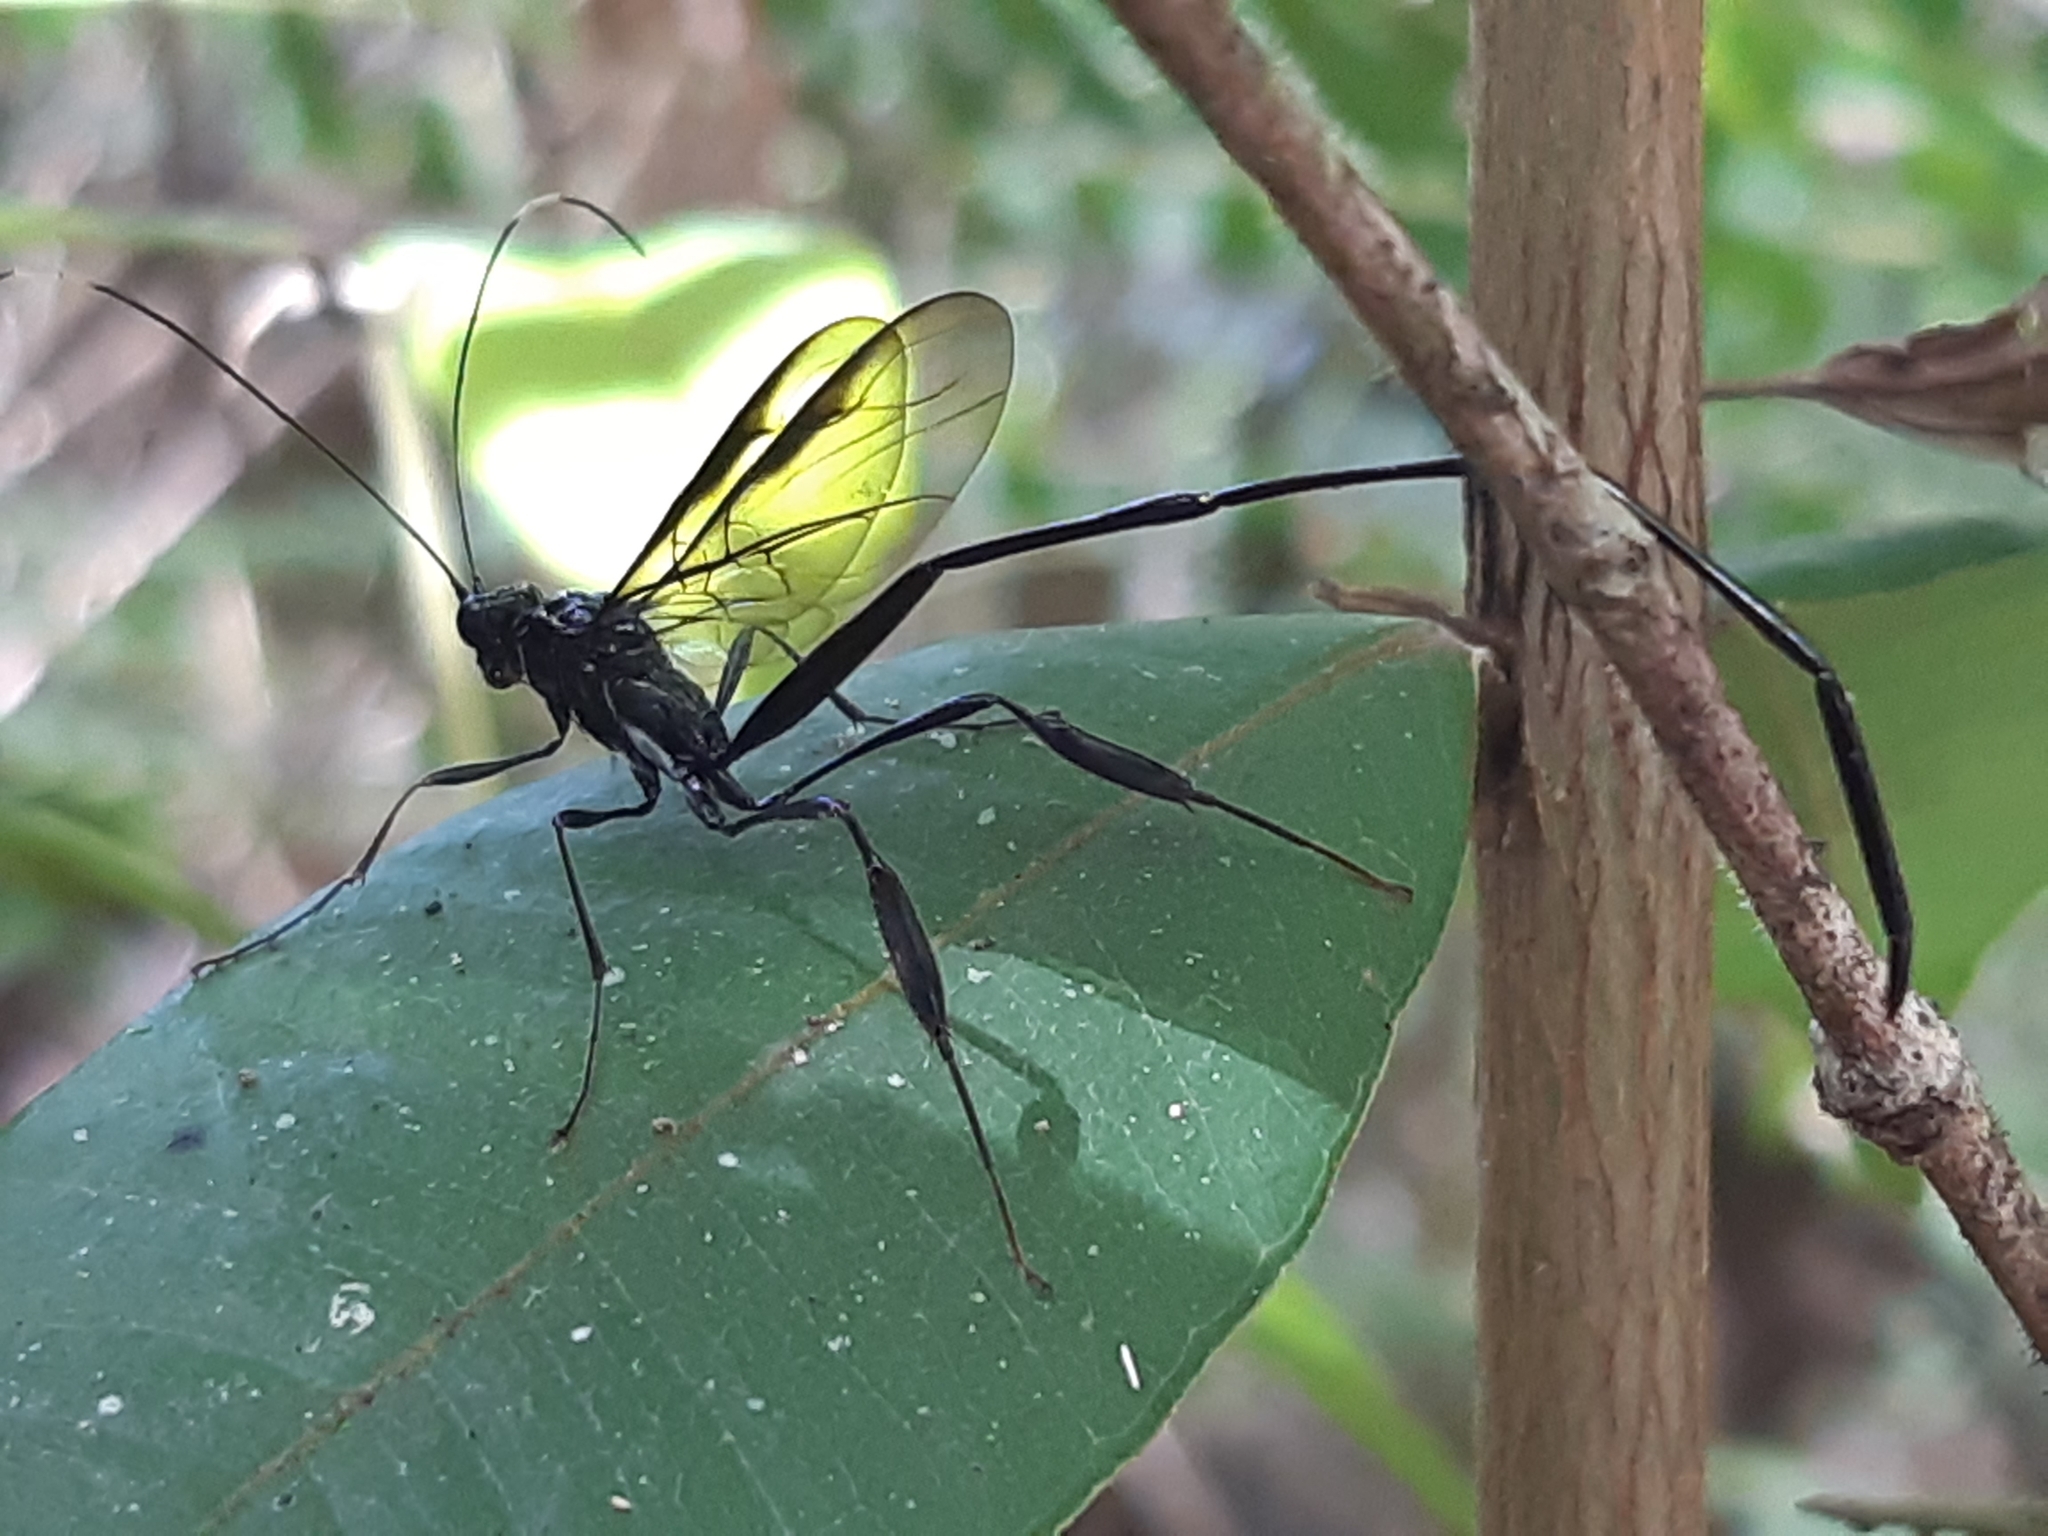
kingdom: Animalia
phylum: Arthropoda
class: Insecta
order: Hymenoptera
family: Pelecinidae
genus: Pelecinus
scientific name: Pelecinus polyturator
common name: American pelecinid wasp
